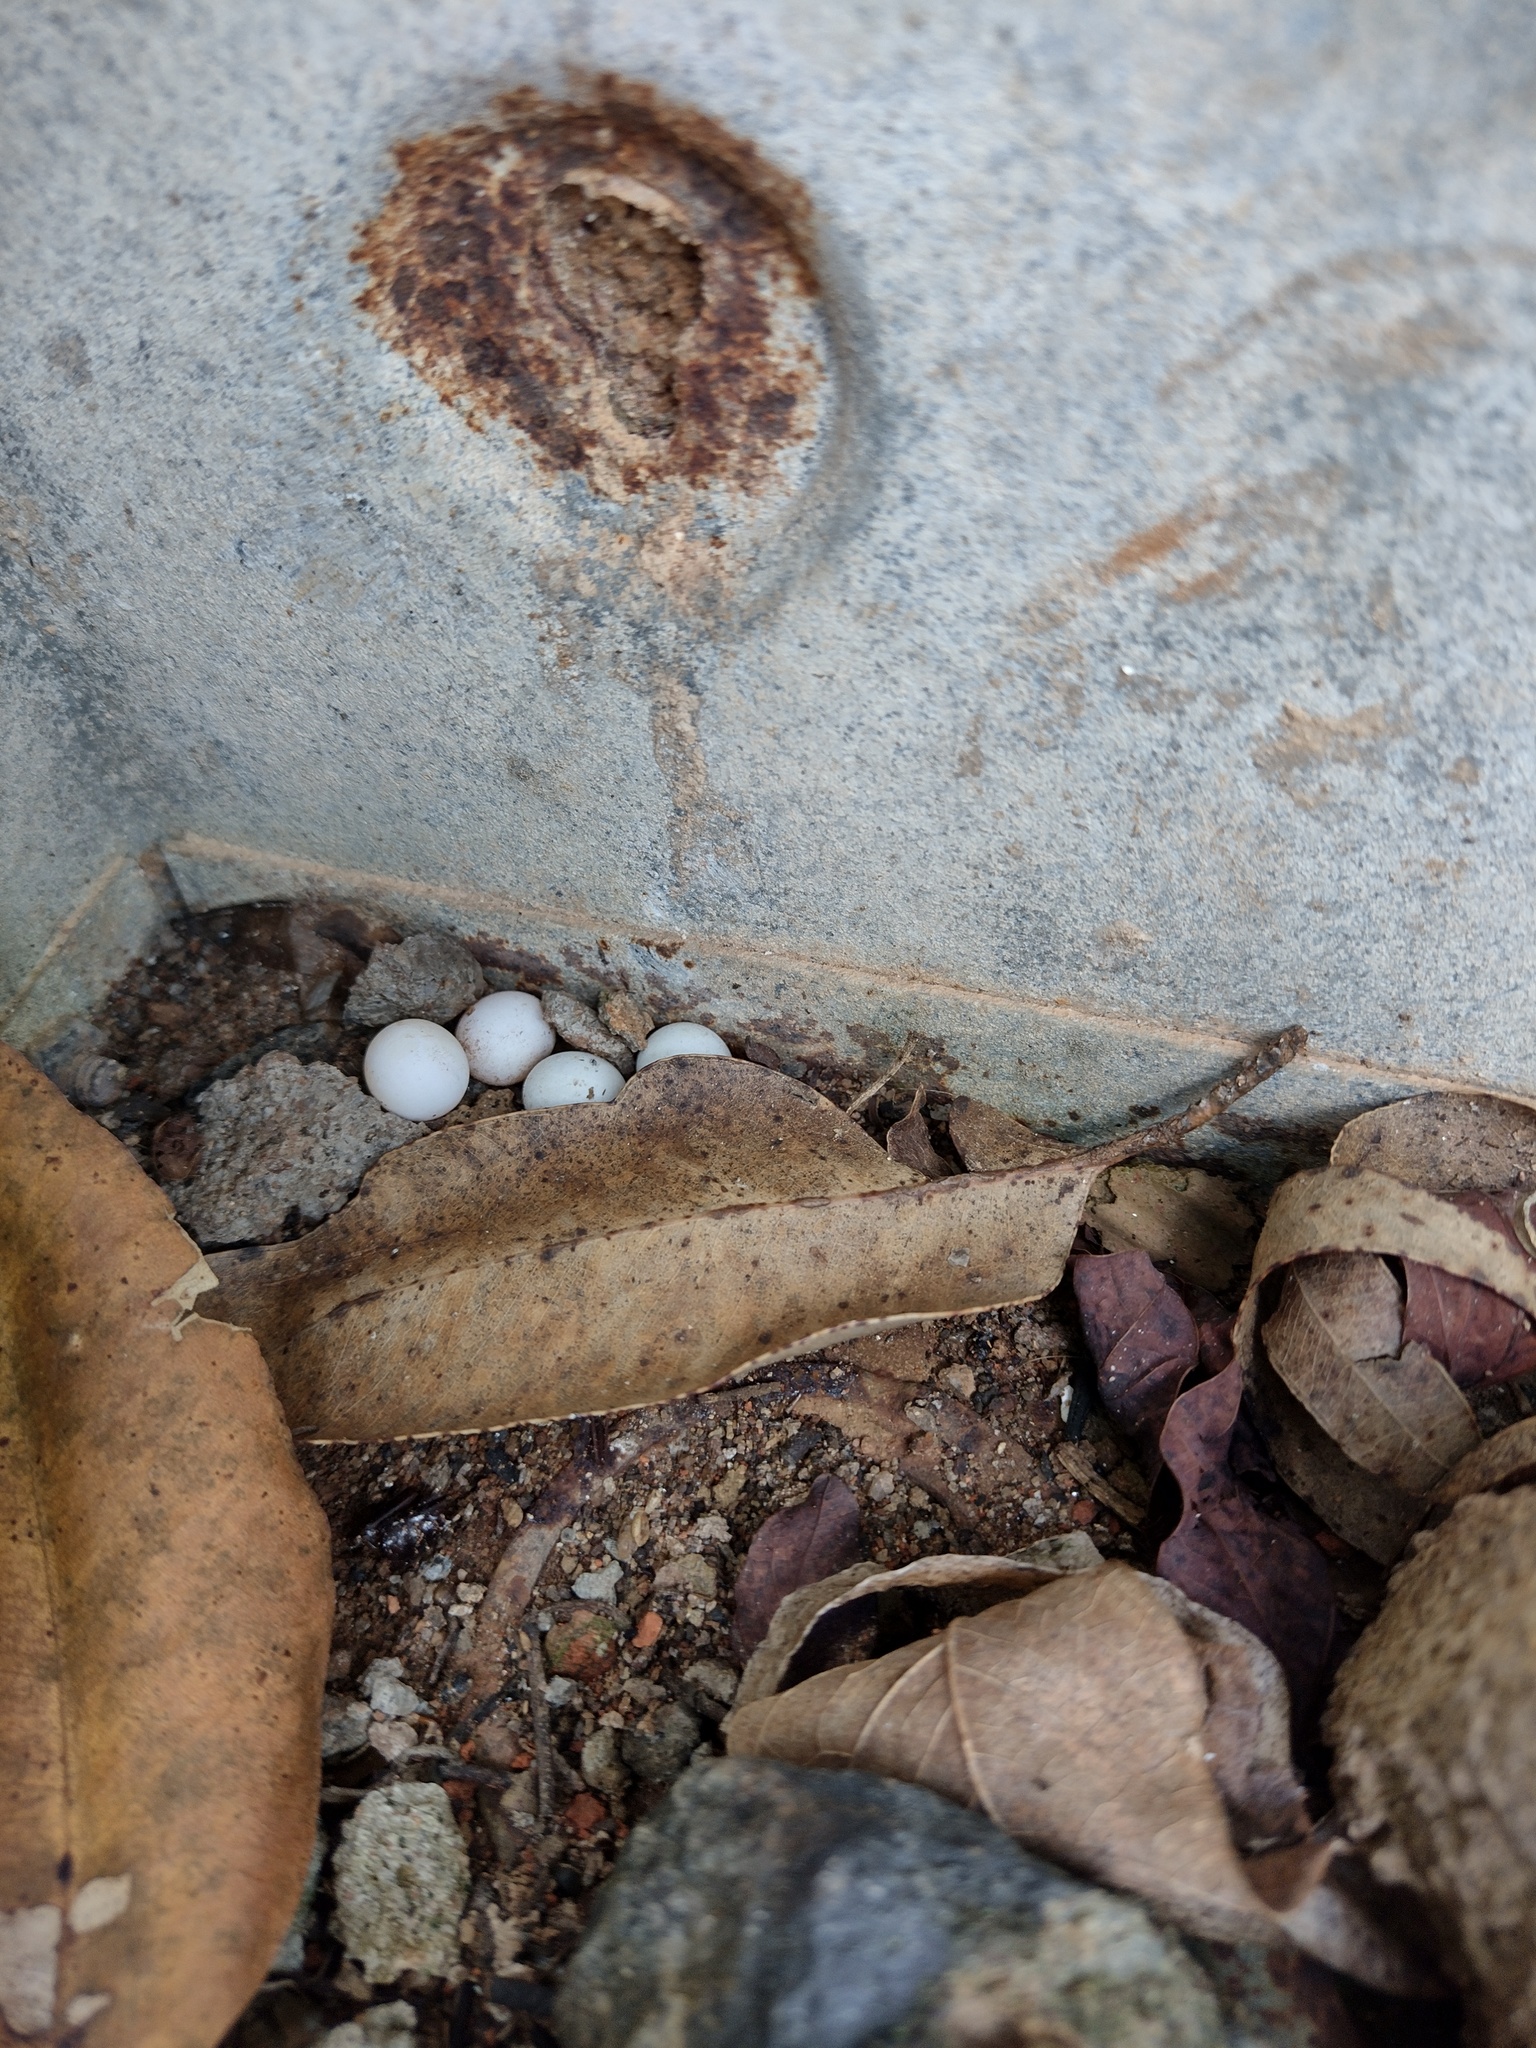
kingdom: Animalia
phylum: Chordata
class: Squamata
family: Gekkonidae
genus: Hemidactylus
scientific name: Hemidactylus mabouia
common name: House gecko
